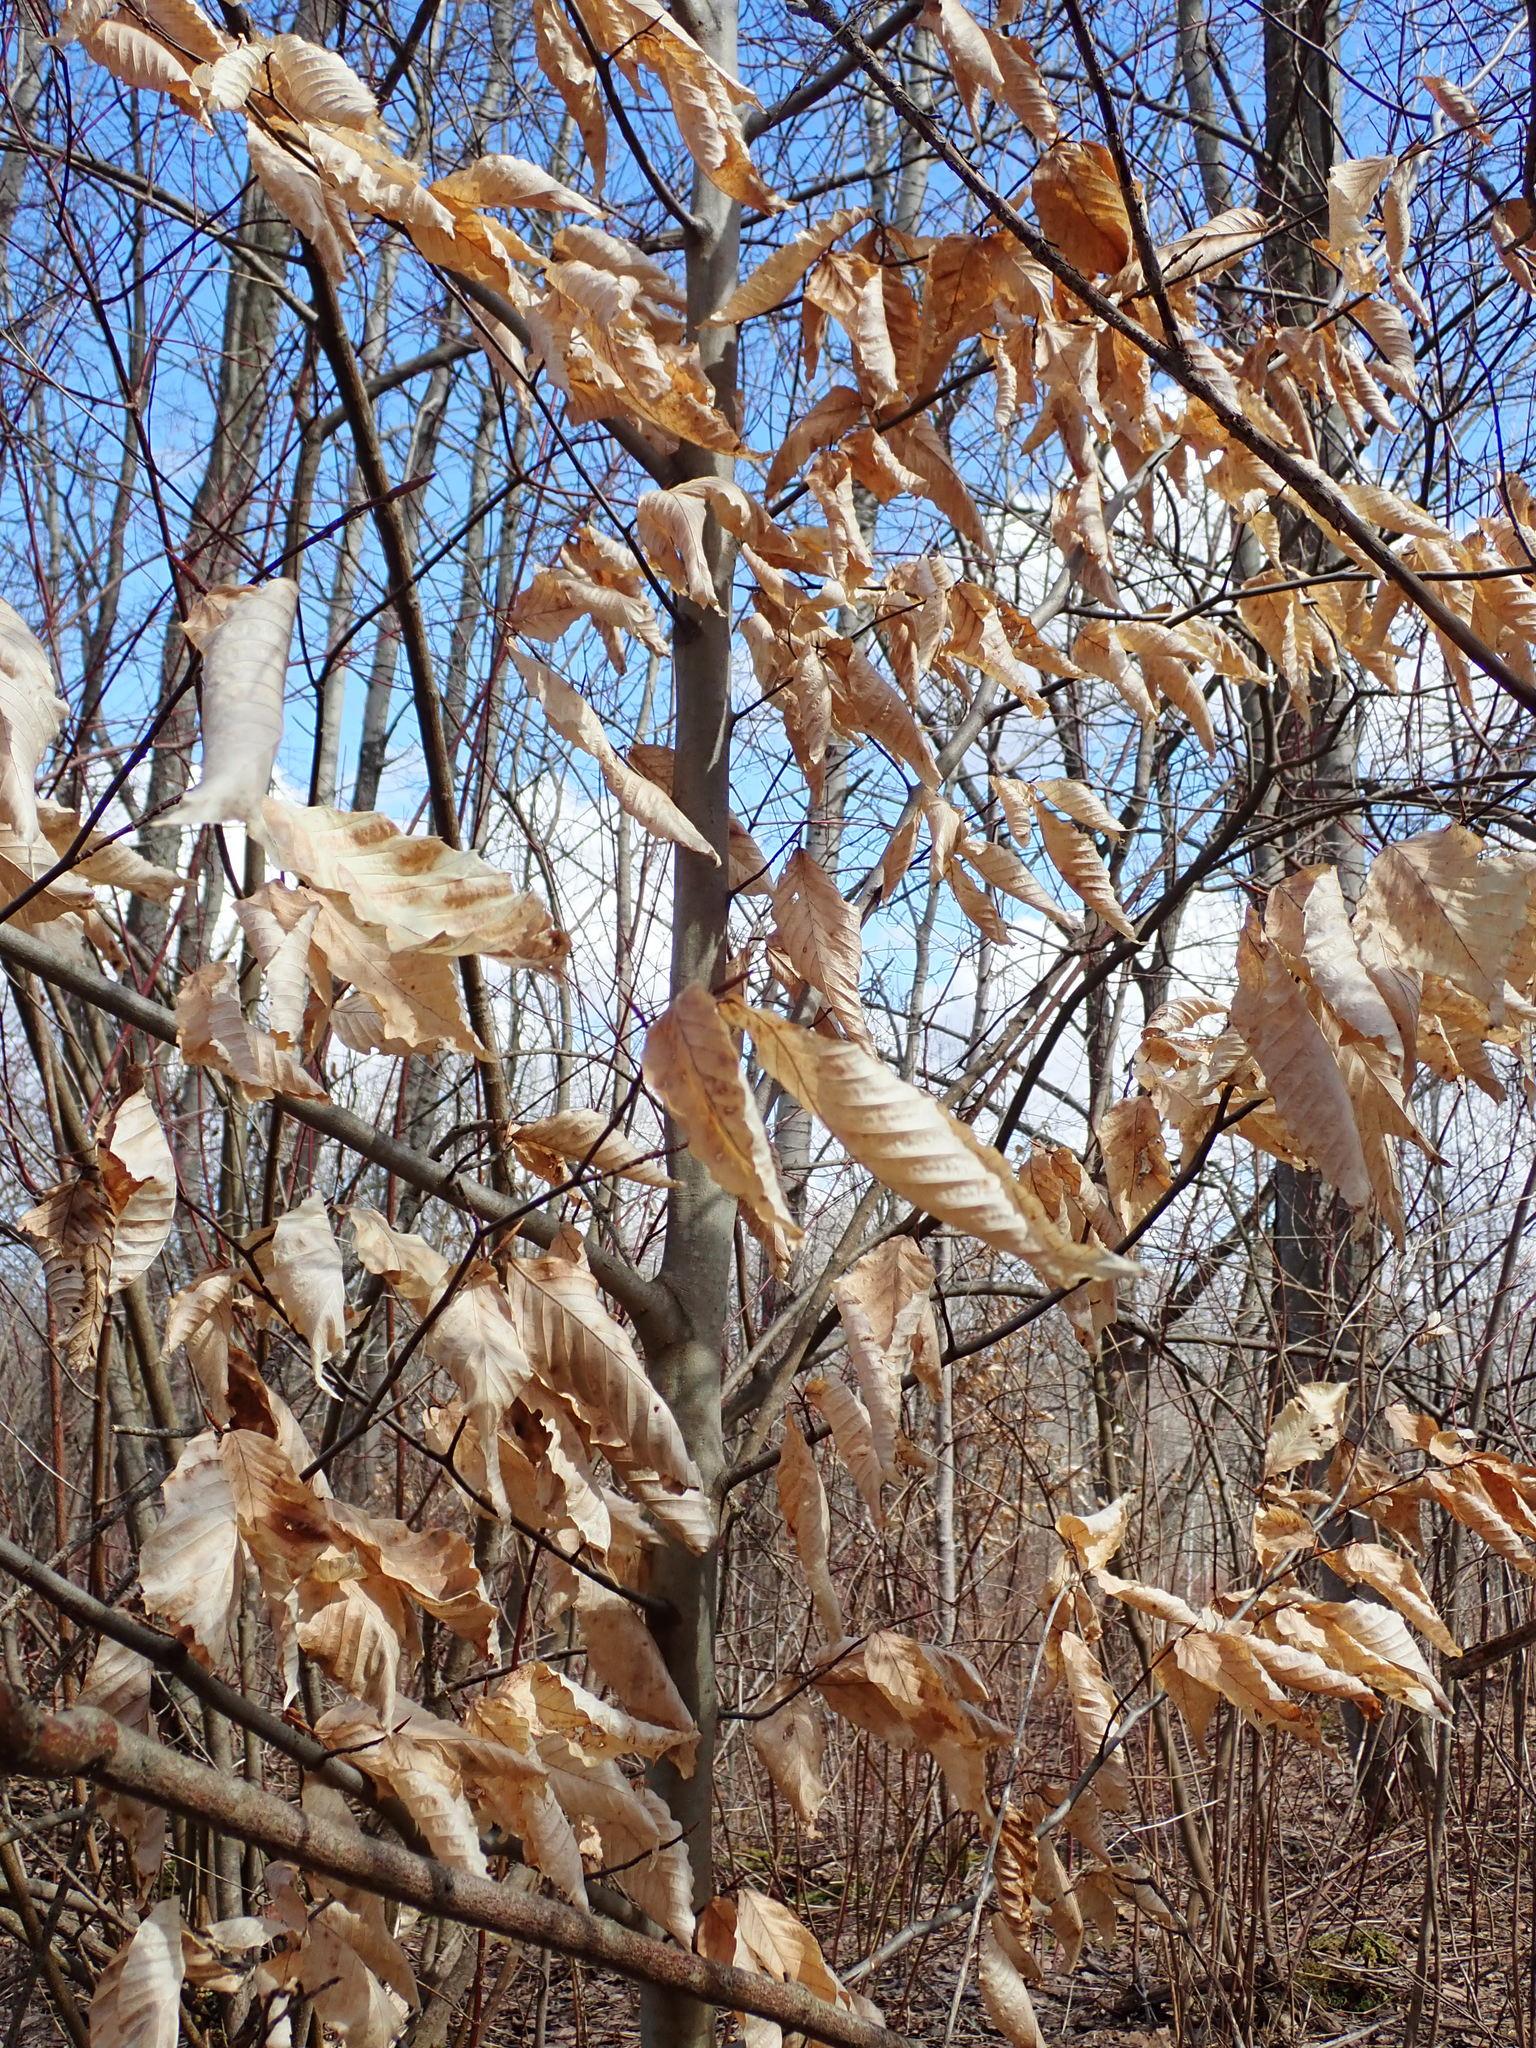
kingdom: Plantae
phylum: Tracheophyta
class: Magnoliopsida
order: Fagales
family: Fagaceae
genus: Fagus
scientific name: Fagus grandifolia
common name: American beech
